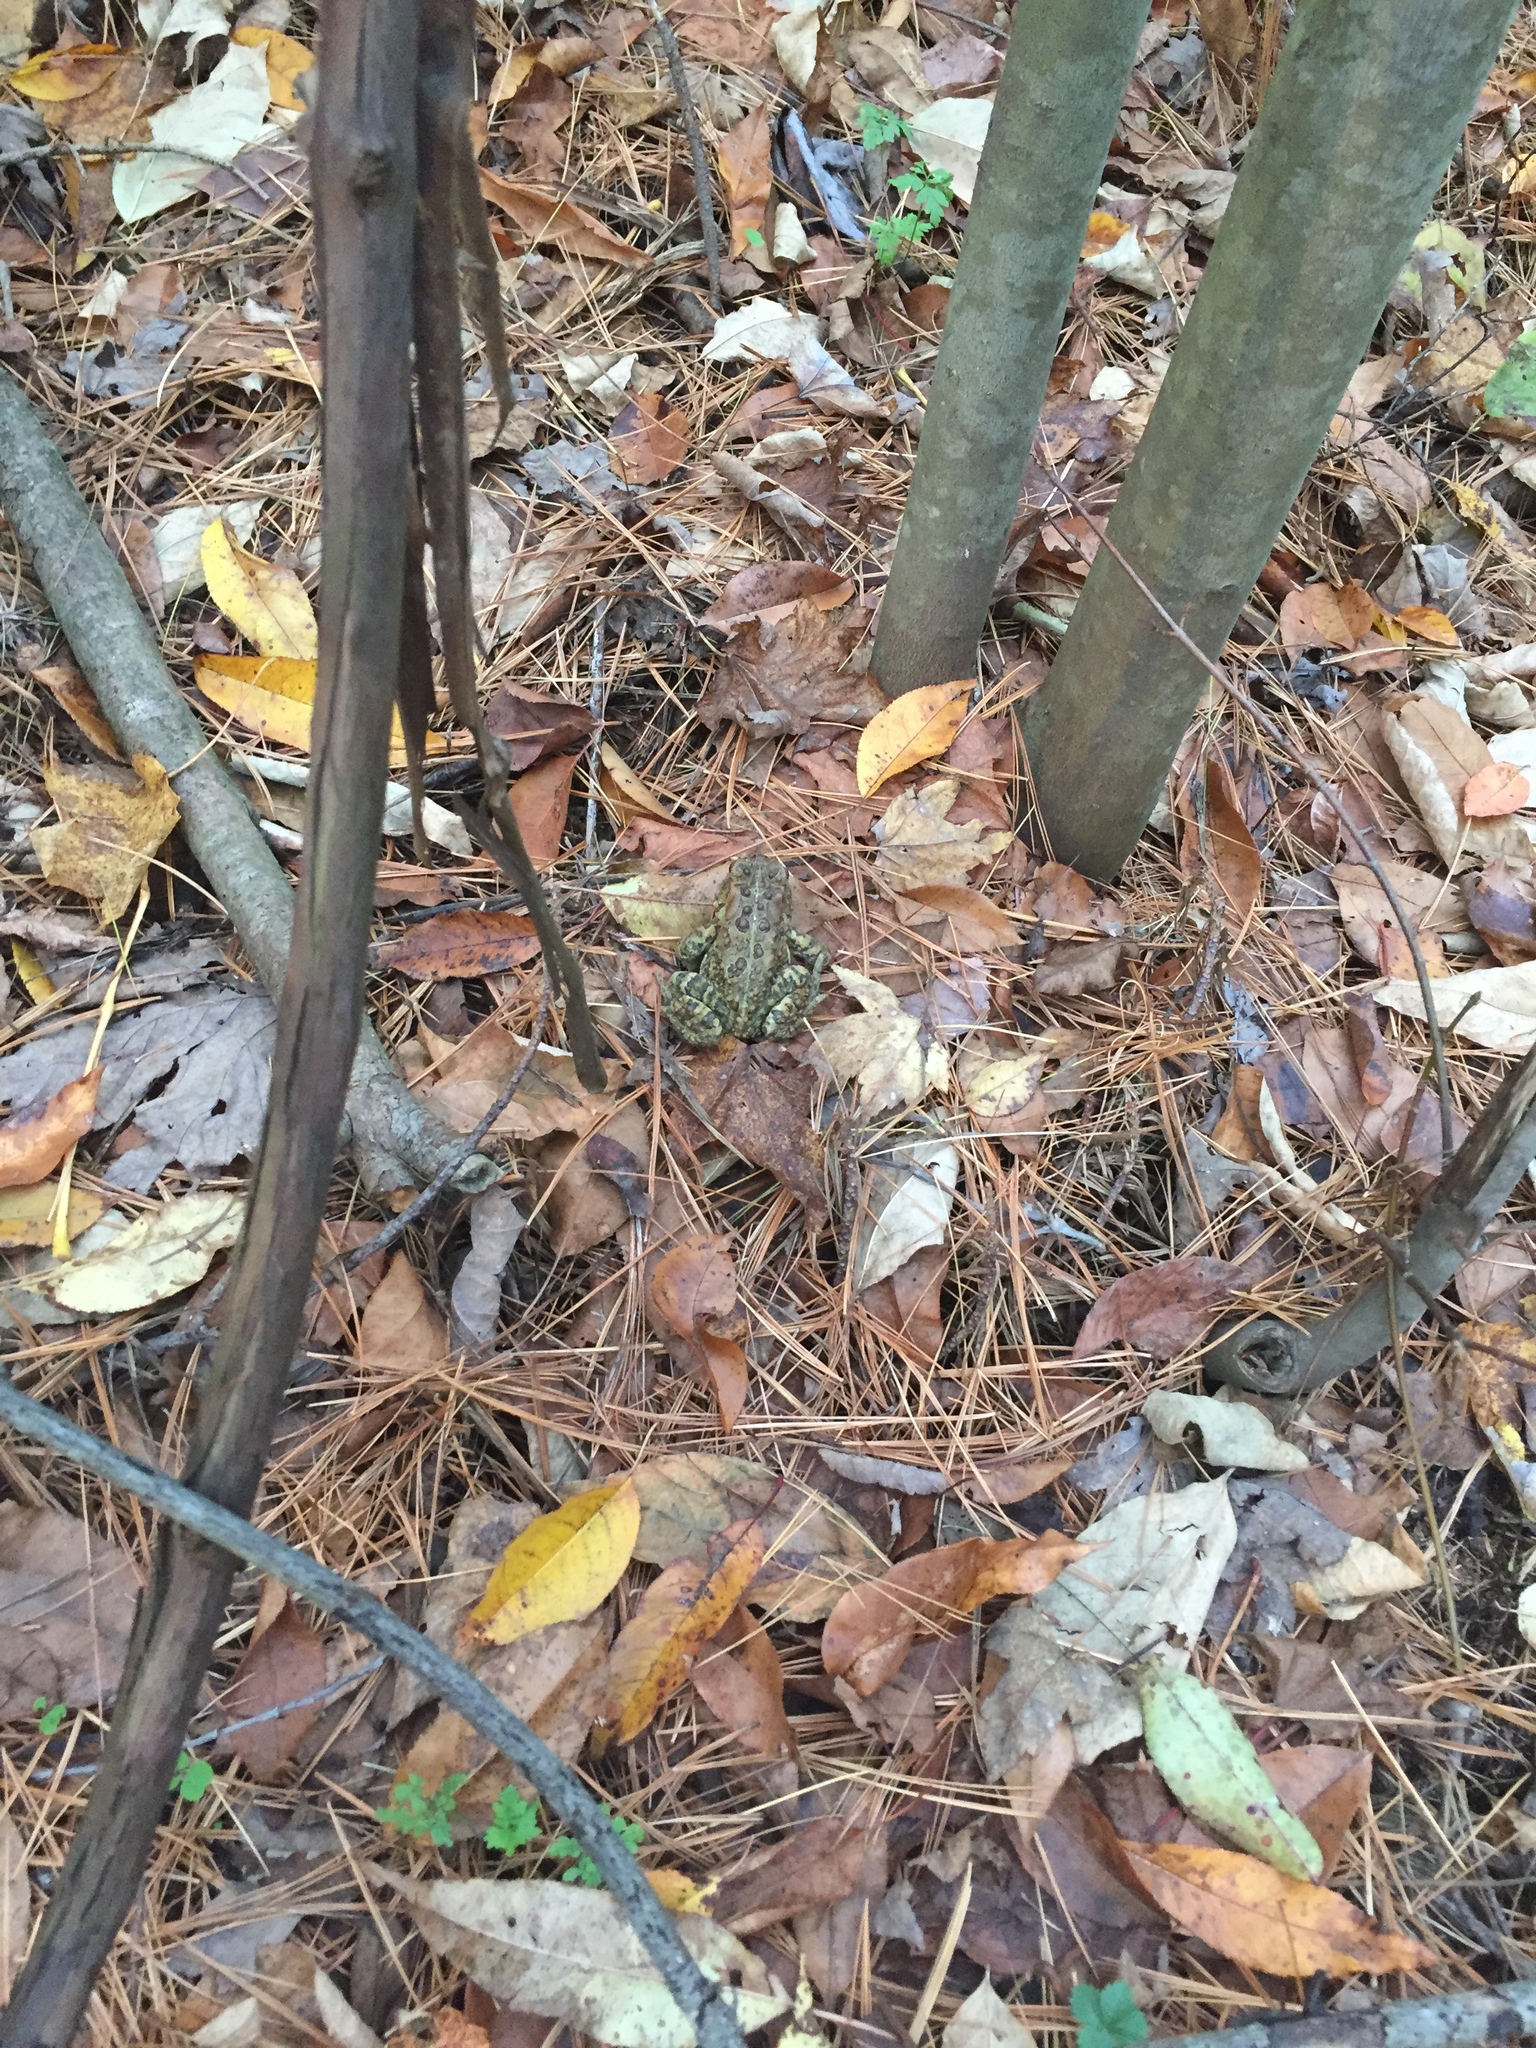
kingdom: Animalia
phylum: Chordata
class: Amphibia
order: Anura
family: Bufonidae
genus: Anaxyrus
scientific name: Anaxyrus americanus
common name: American toad
